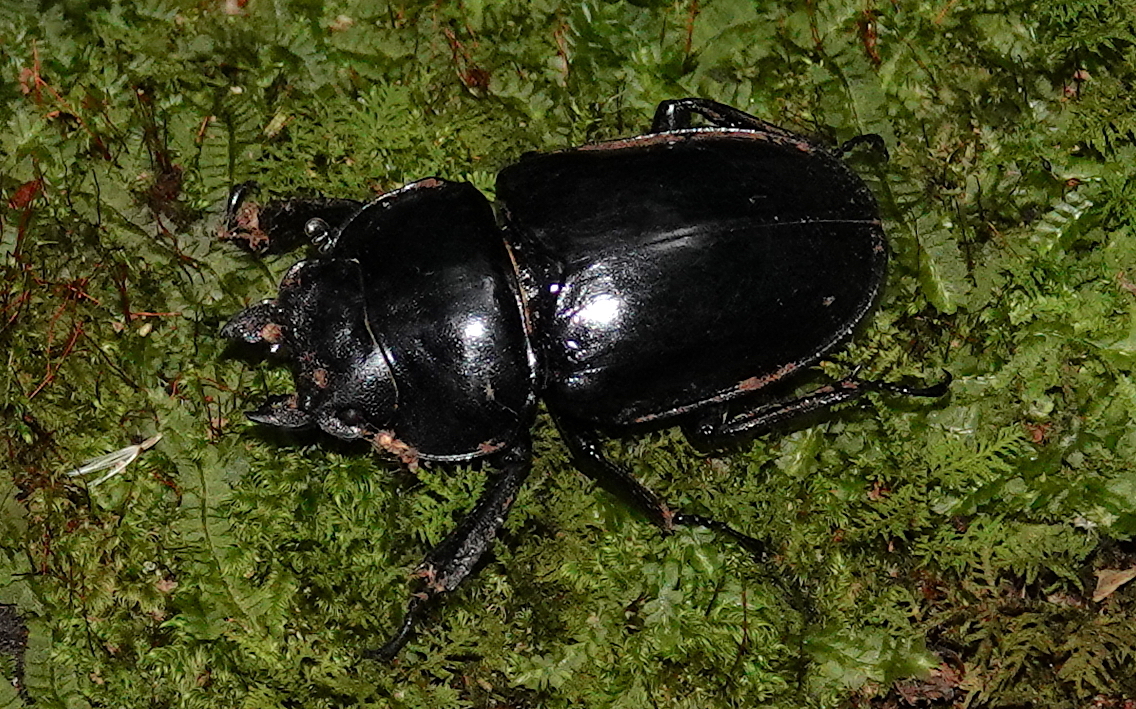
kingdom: Animalia
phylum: Arthropoda
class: Insecta
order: Coleoptera
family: Lucanidae
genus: Neolucanus
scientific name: Neolucanus laticollis
